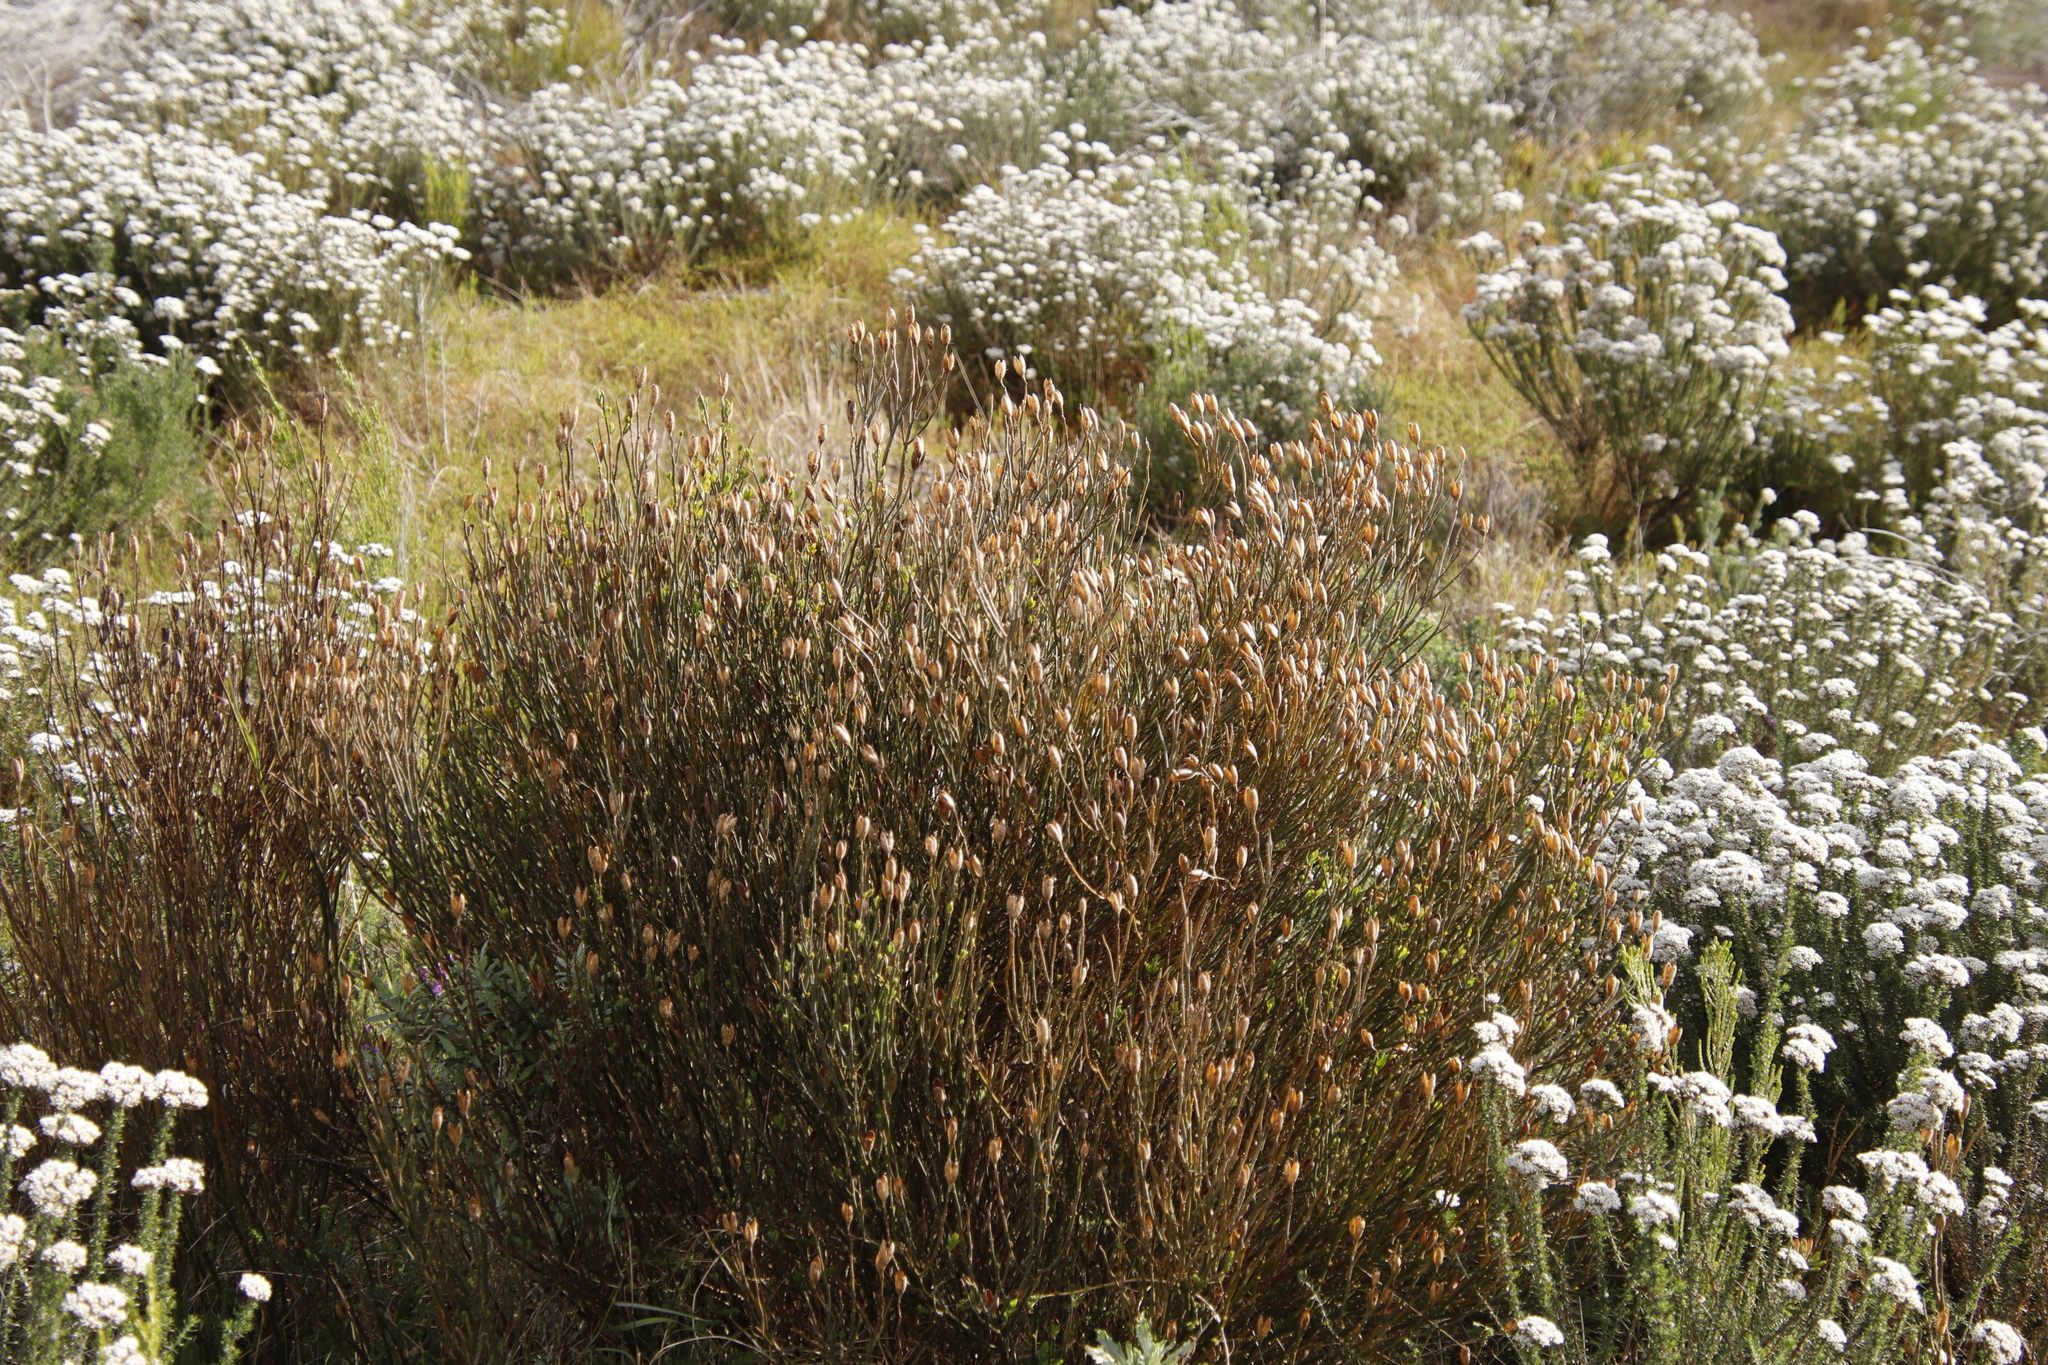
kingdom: Plantae
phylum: Tracheophyta
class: Magnoliopsida
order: Solanales
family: Montiniaceae
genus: Montinia
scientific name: Montinia caryophyllacea
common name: Wild clove-bush
